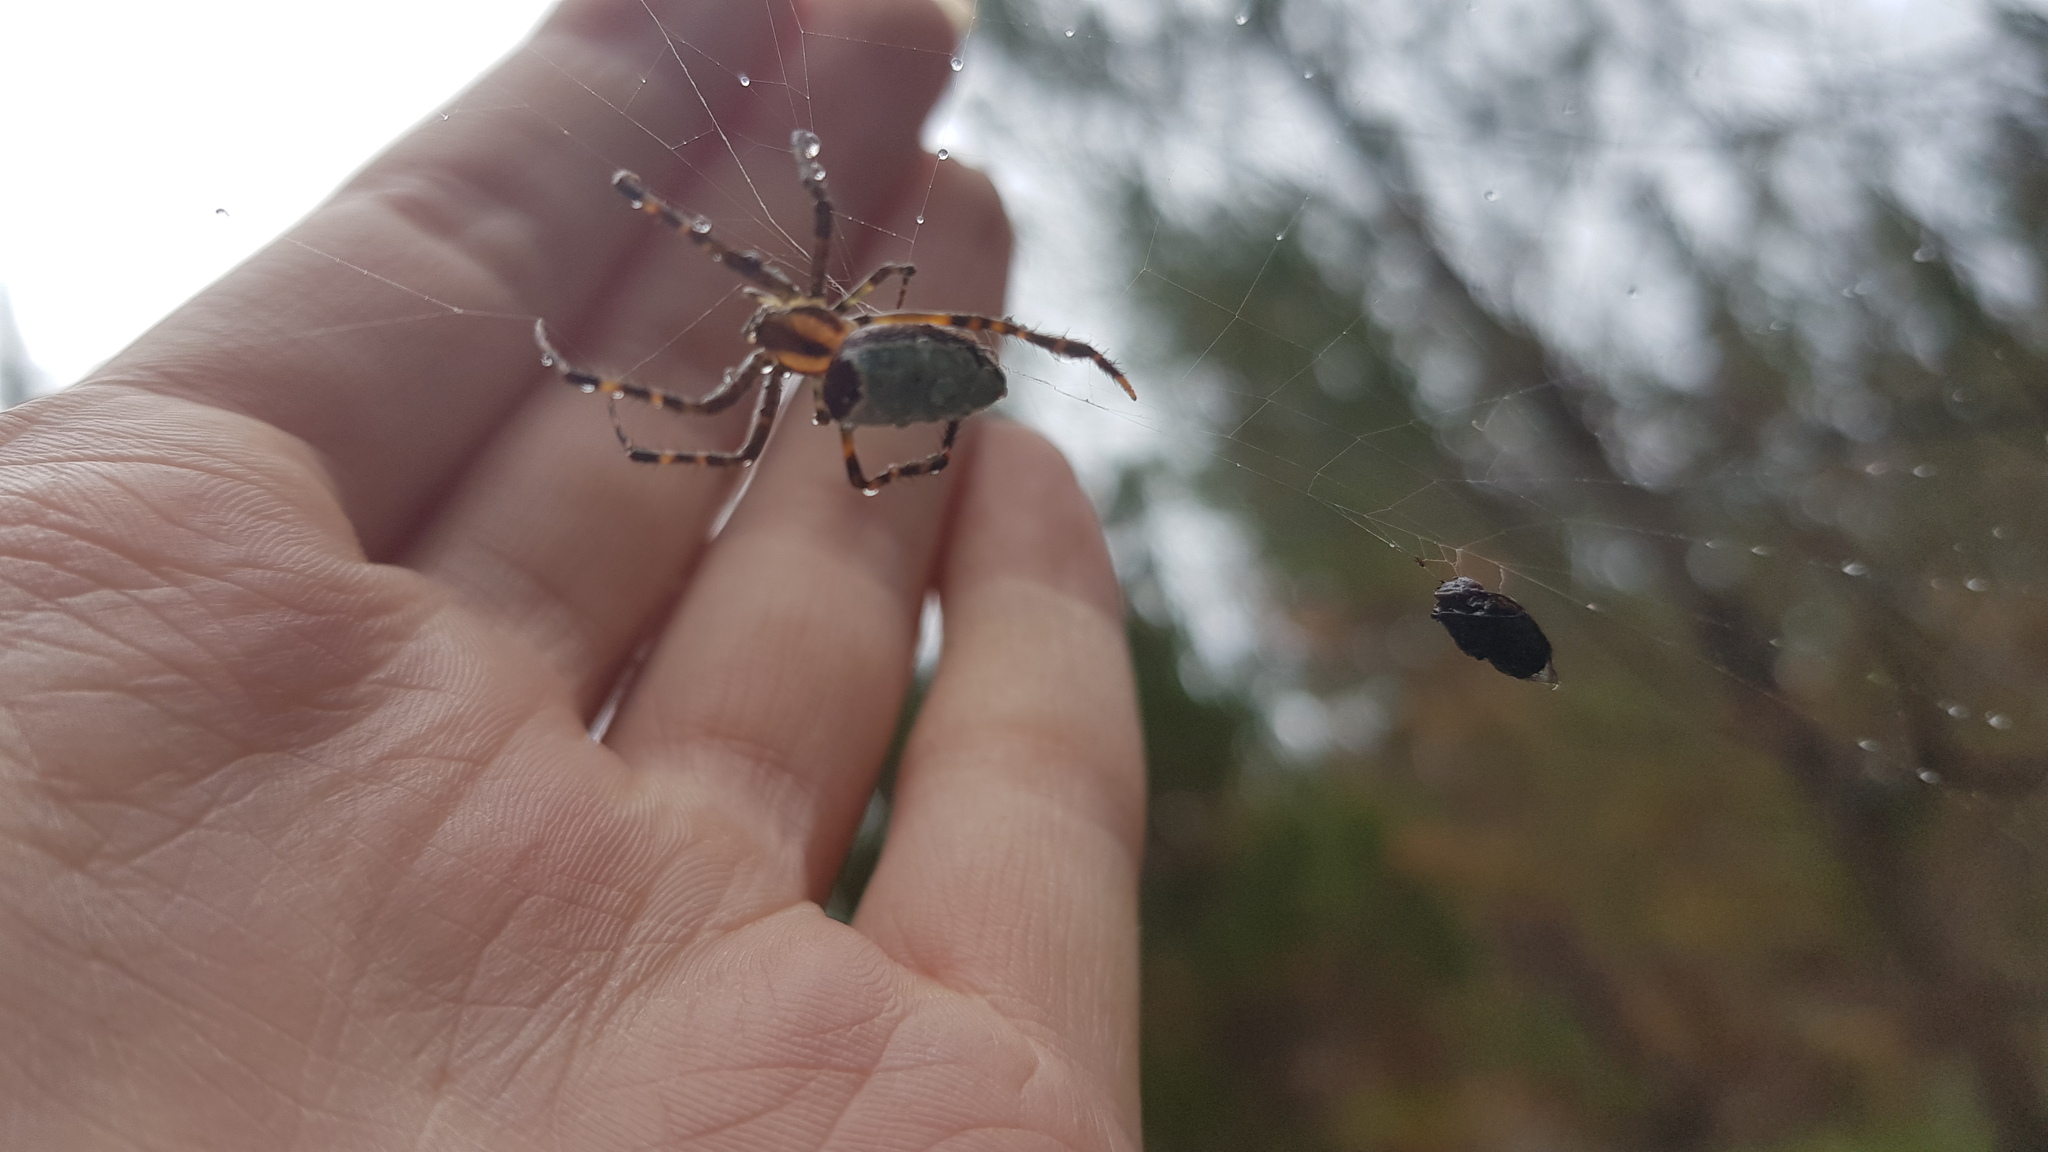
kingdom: Animalia
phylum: Arthropoda
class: Arachnida
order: Araneae
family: Araneidae
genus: Plebs
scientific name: Plebs bradleyi
